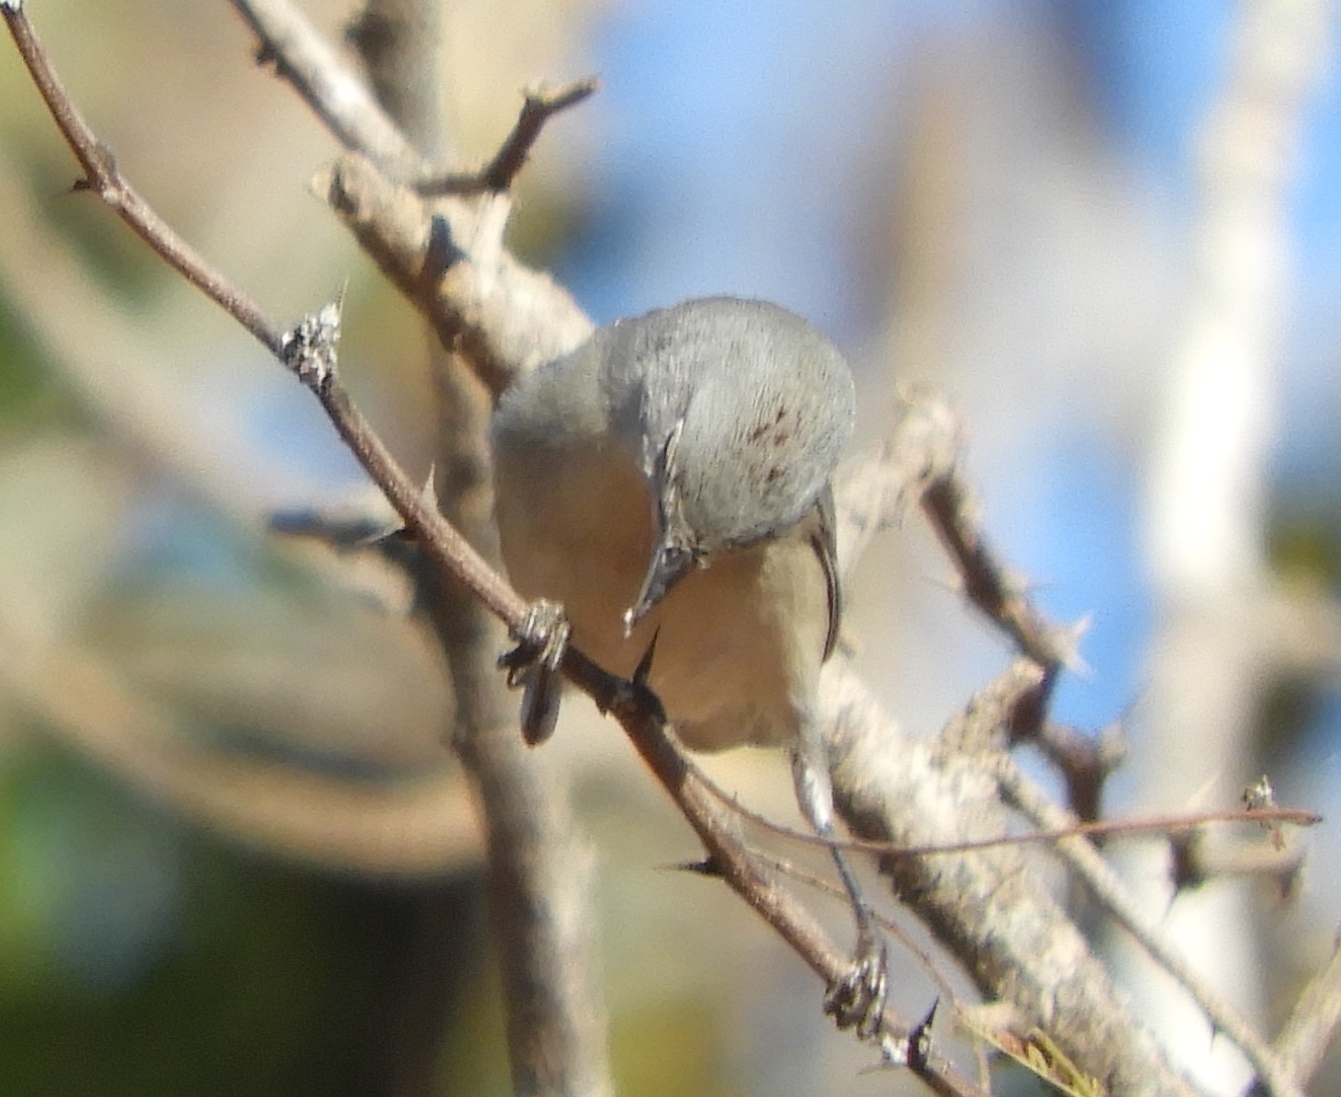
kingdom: Animalia
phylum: Chordata
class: Aves
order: Passeriformes
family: Parulidae
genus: Leiothlypis
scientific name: Leiothlypis luciae
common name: Lucy's warbler
